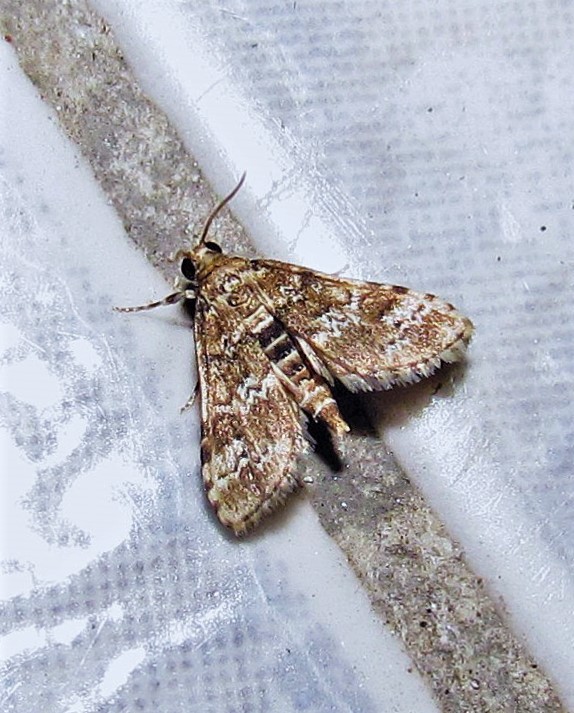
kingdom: Animalia
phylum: Arthropoda
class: Insecta
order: Lepidoptera
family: Crambidae
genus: Samea
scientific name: Samea multiplicalis
